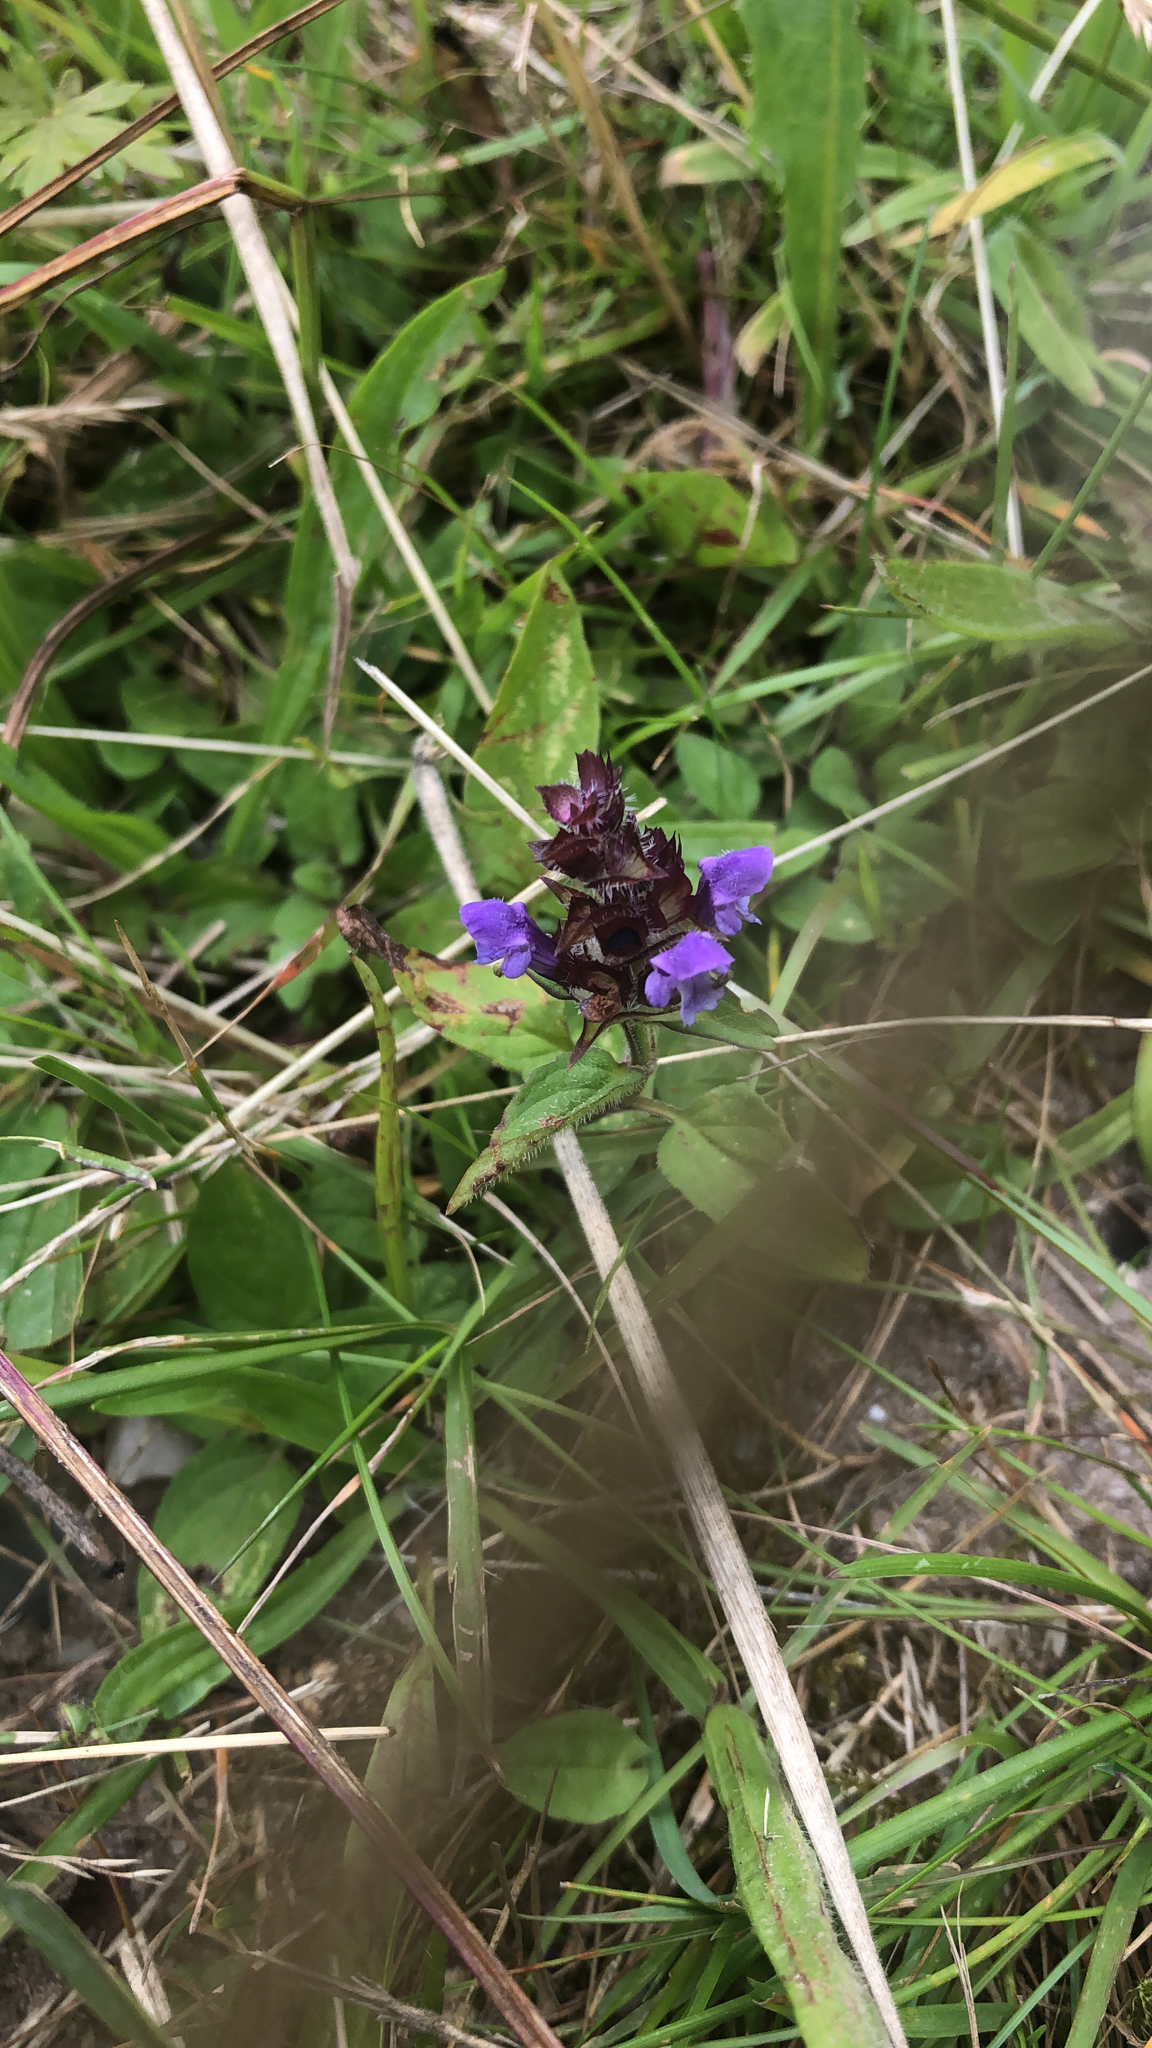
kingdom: Plantae
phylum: Tracheophyta
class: Magnoliopsida
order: Lamiales
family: Lamiaceae
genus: Prunella
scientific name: Prunella vulgaris
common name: Heal-all
